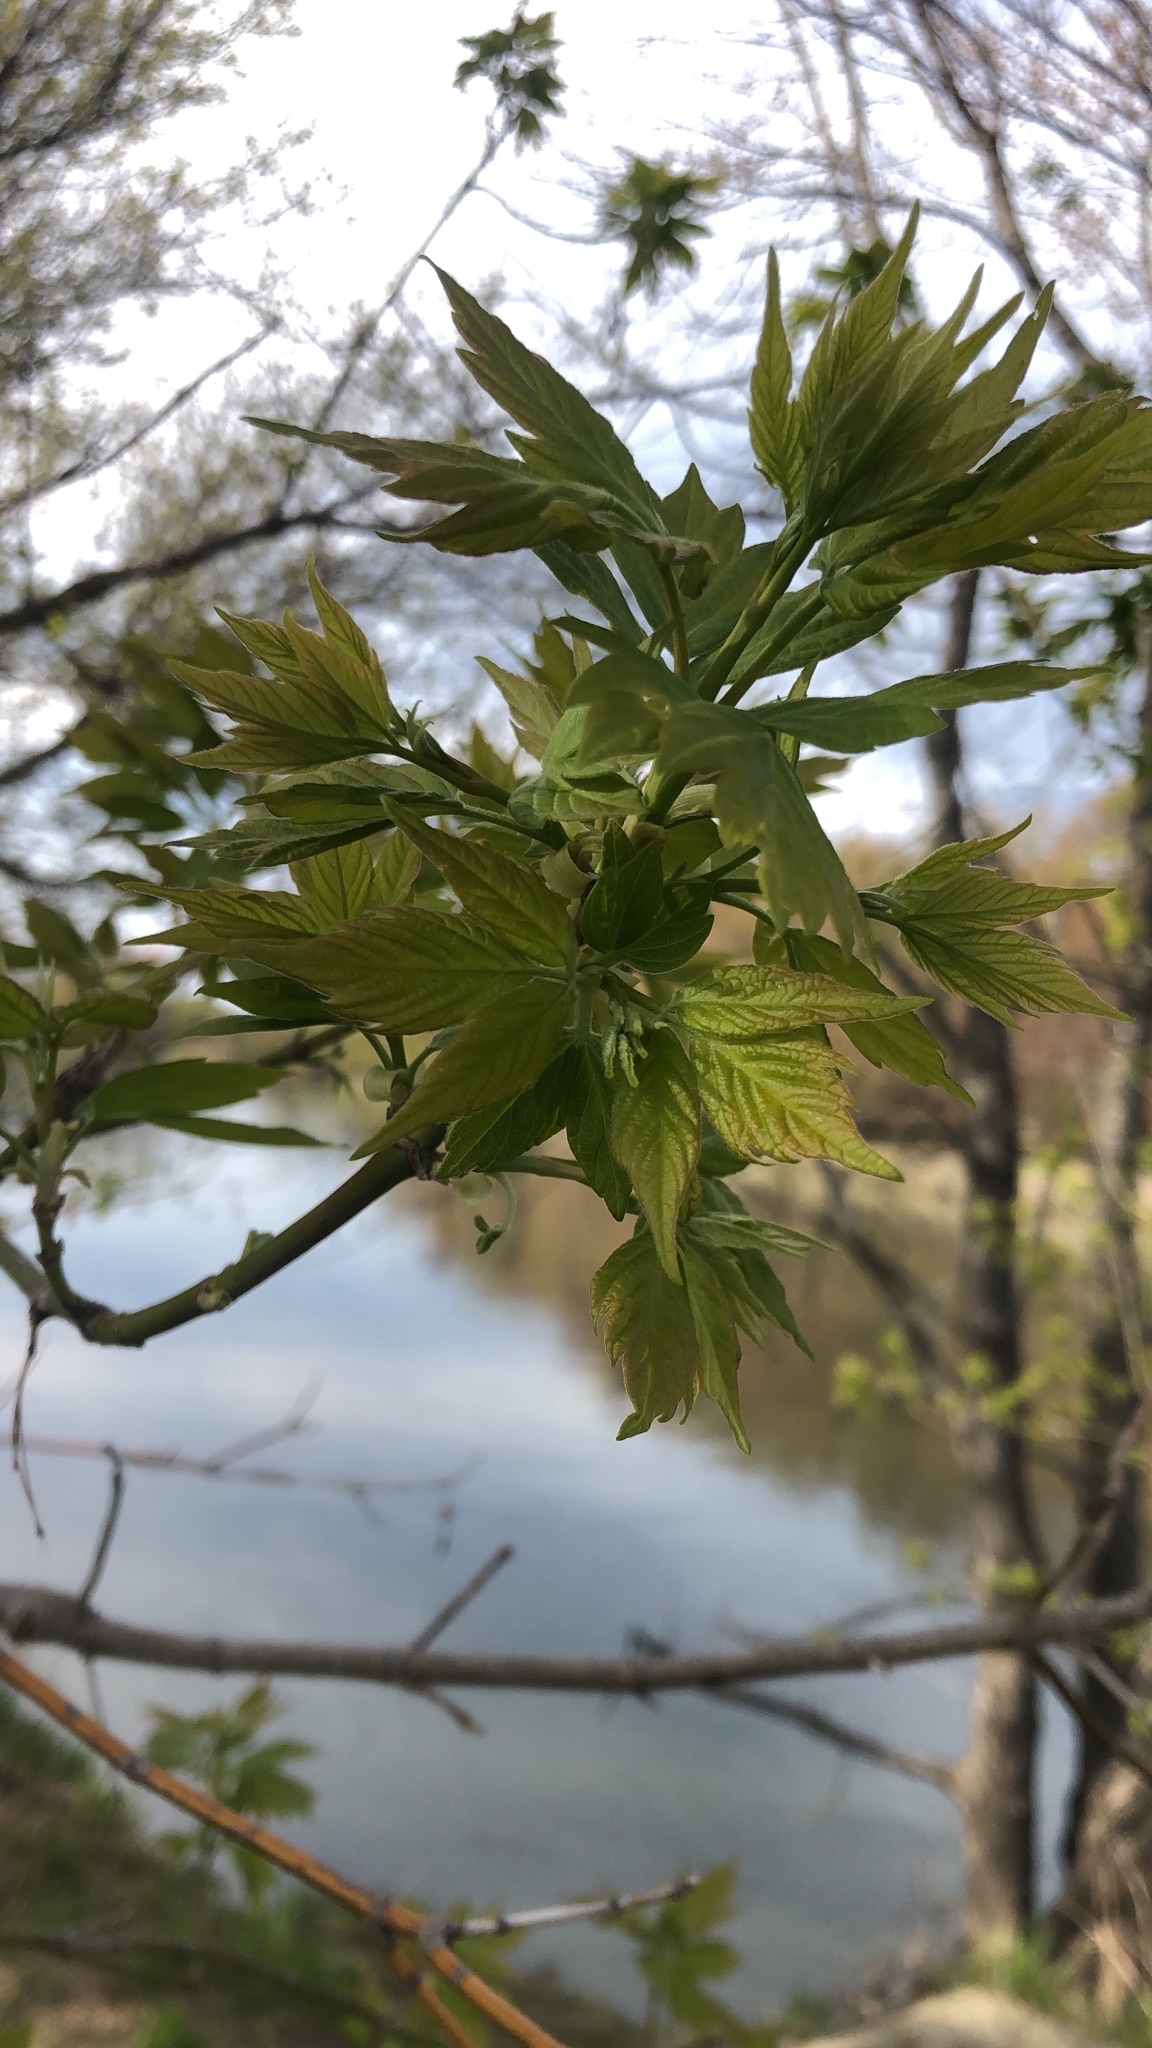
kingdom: Plantae
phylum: Tracheophyta
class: Magnoliopsida
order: Sapindales
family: Sapindaceae
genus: Acer
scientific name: Acer negundo
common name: Ashleaf maple
